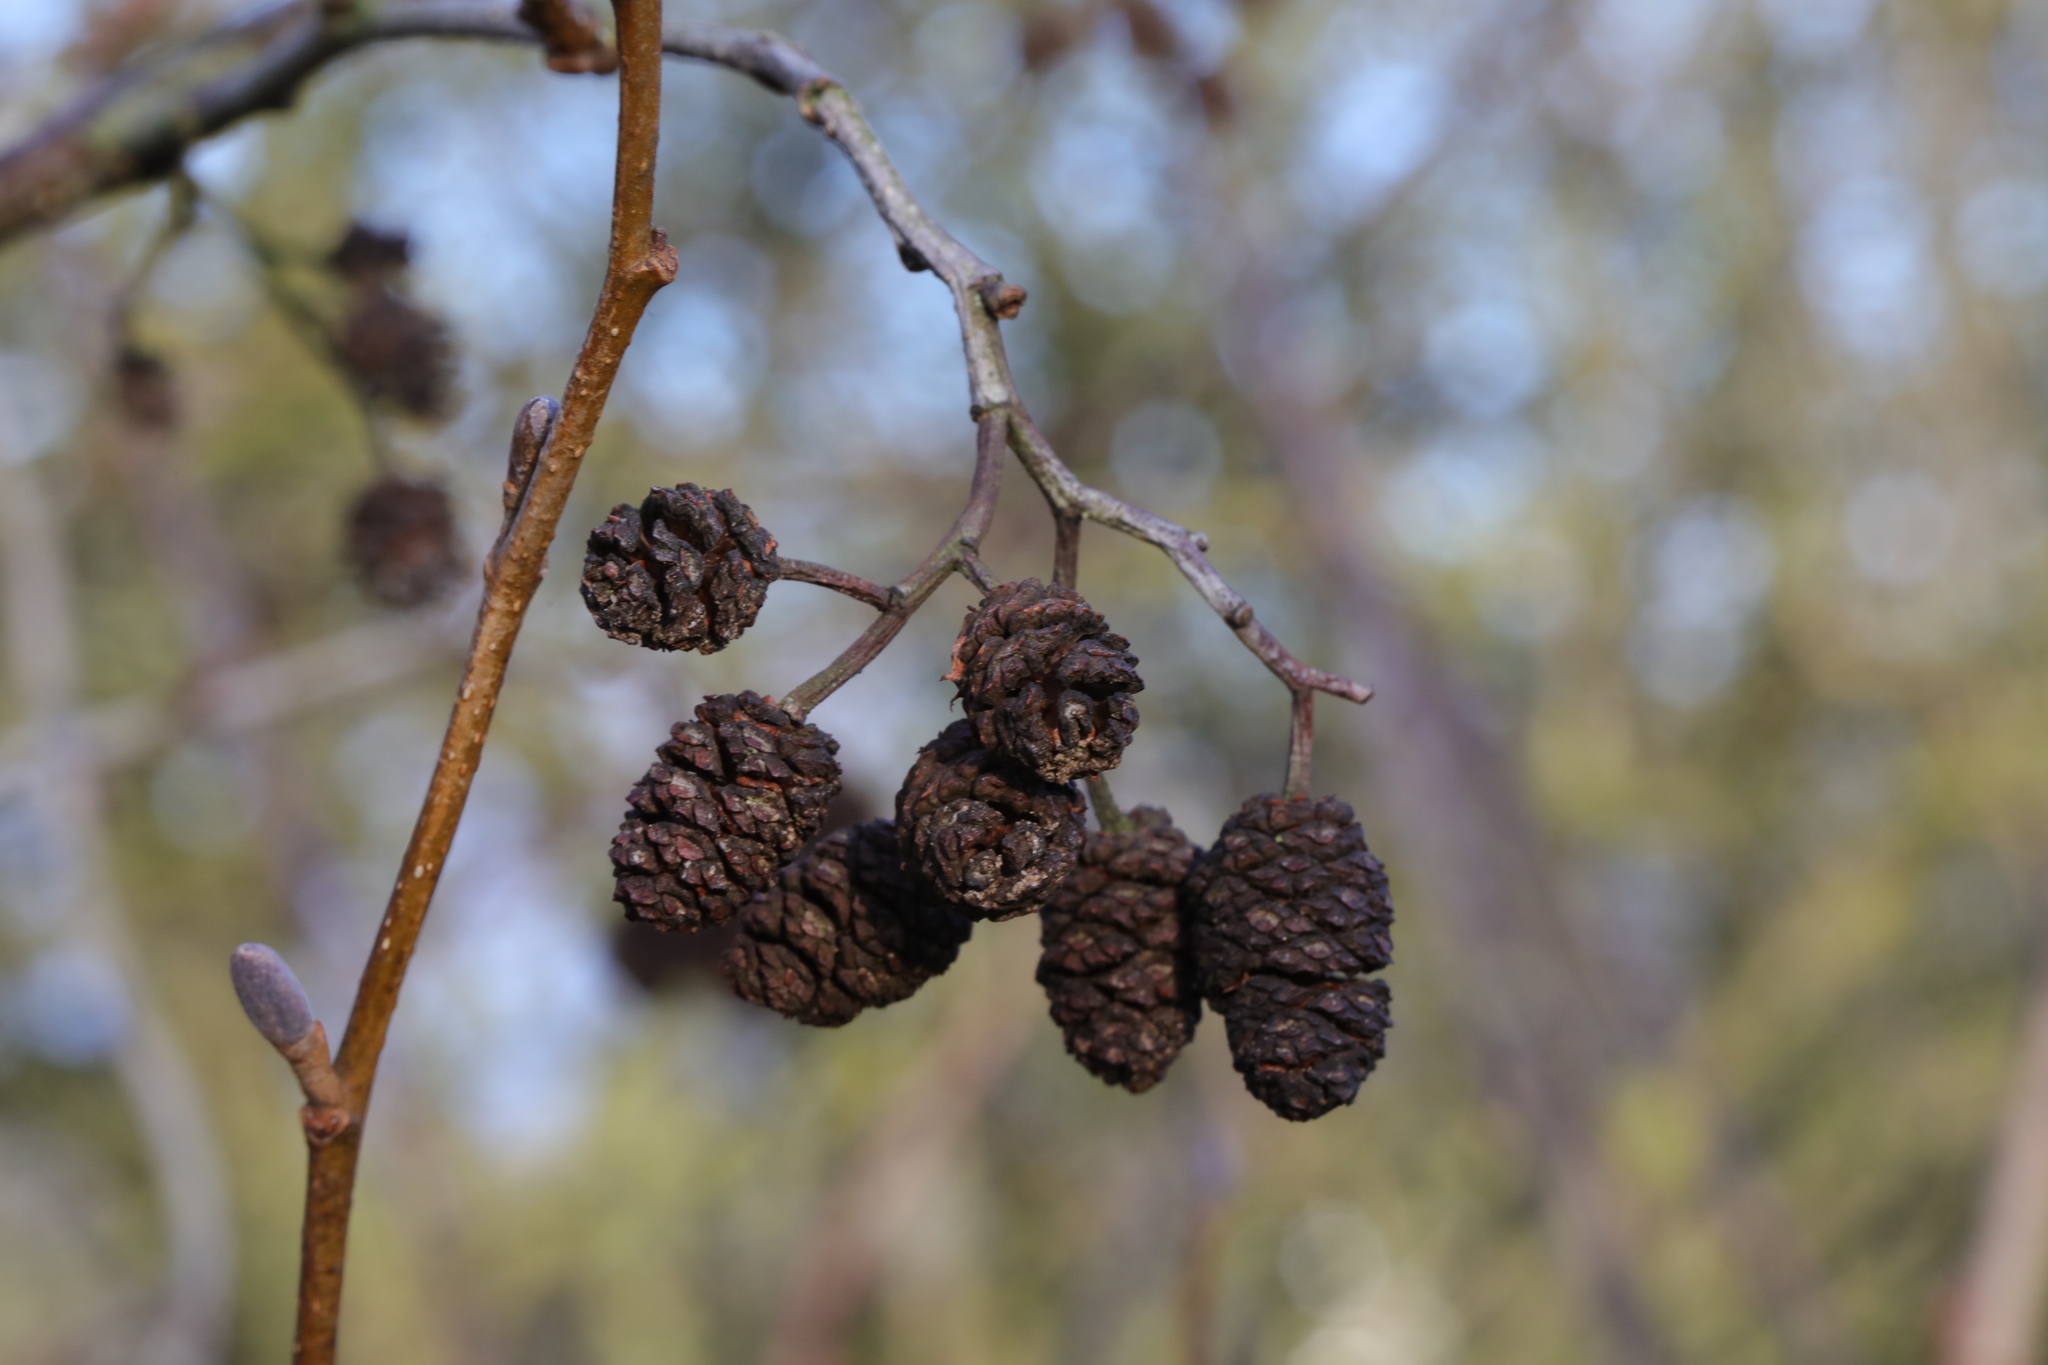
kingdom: Plantae
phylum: Tracheophyta
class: Magnoliopsida
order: Fagales
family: Betulaceae
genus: Alnus
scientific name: Alnus glutinosa
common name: Black alder
